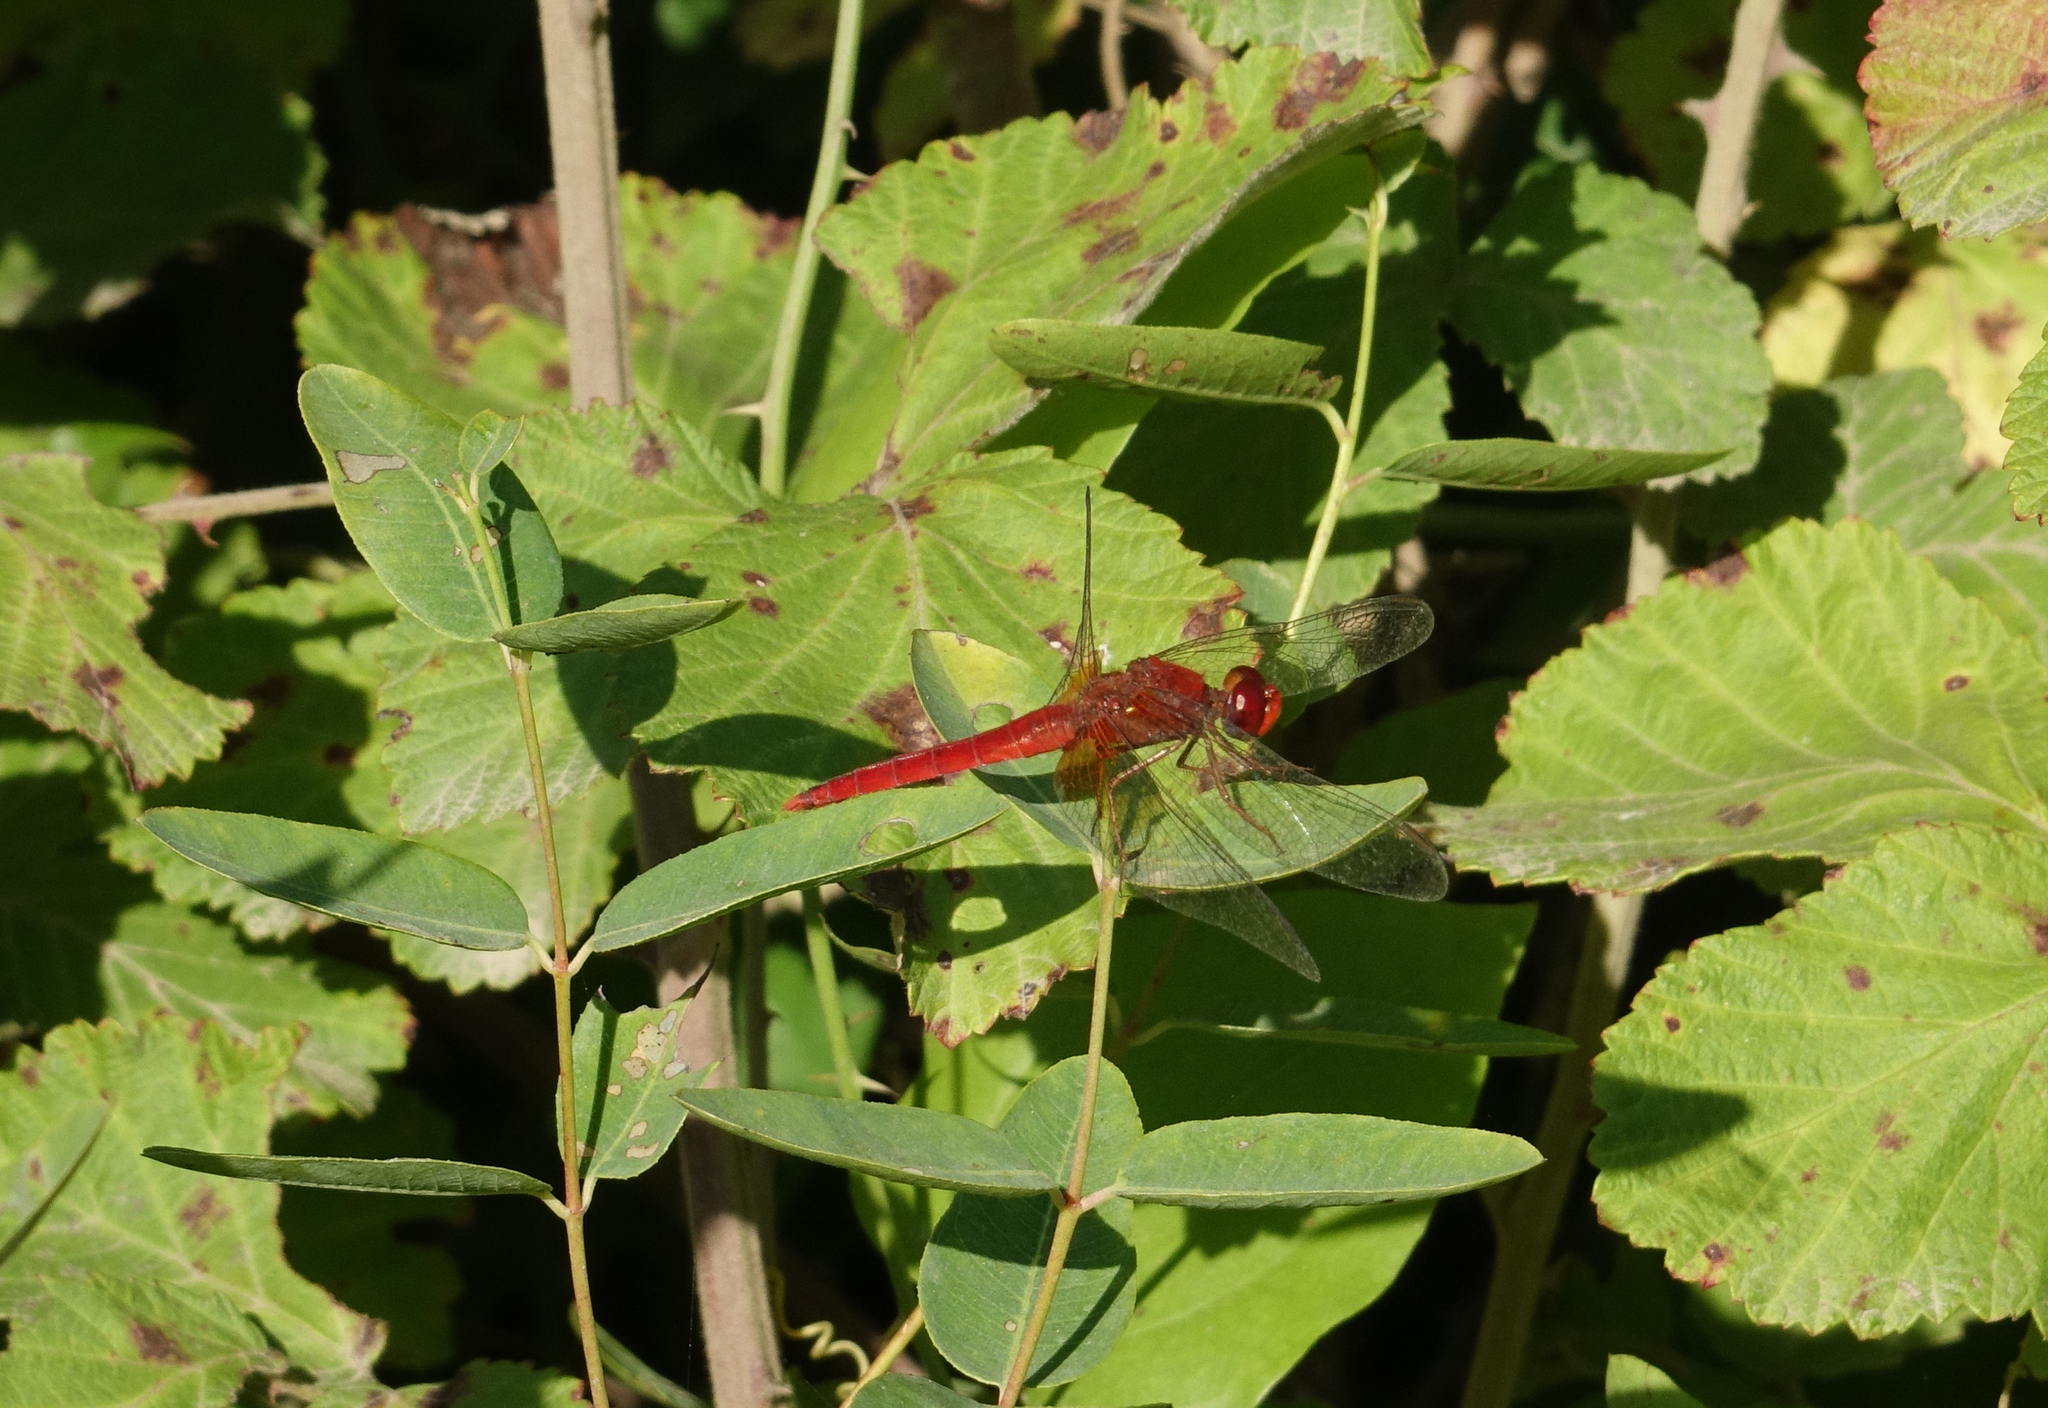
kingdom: Animalia
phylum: Arthropoda
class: Insecta
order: Odonata
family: Libellulidae
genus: Crocothemis
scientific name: Crocothemis erythraea
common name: Scarlet dragonfly
